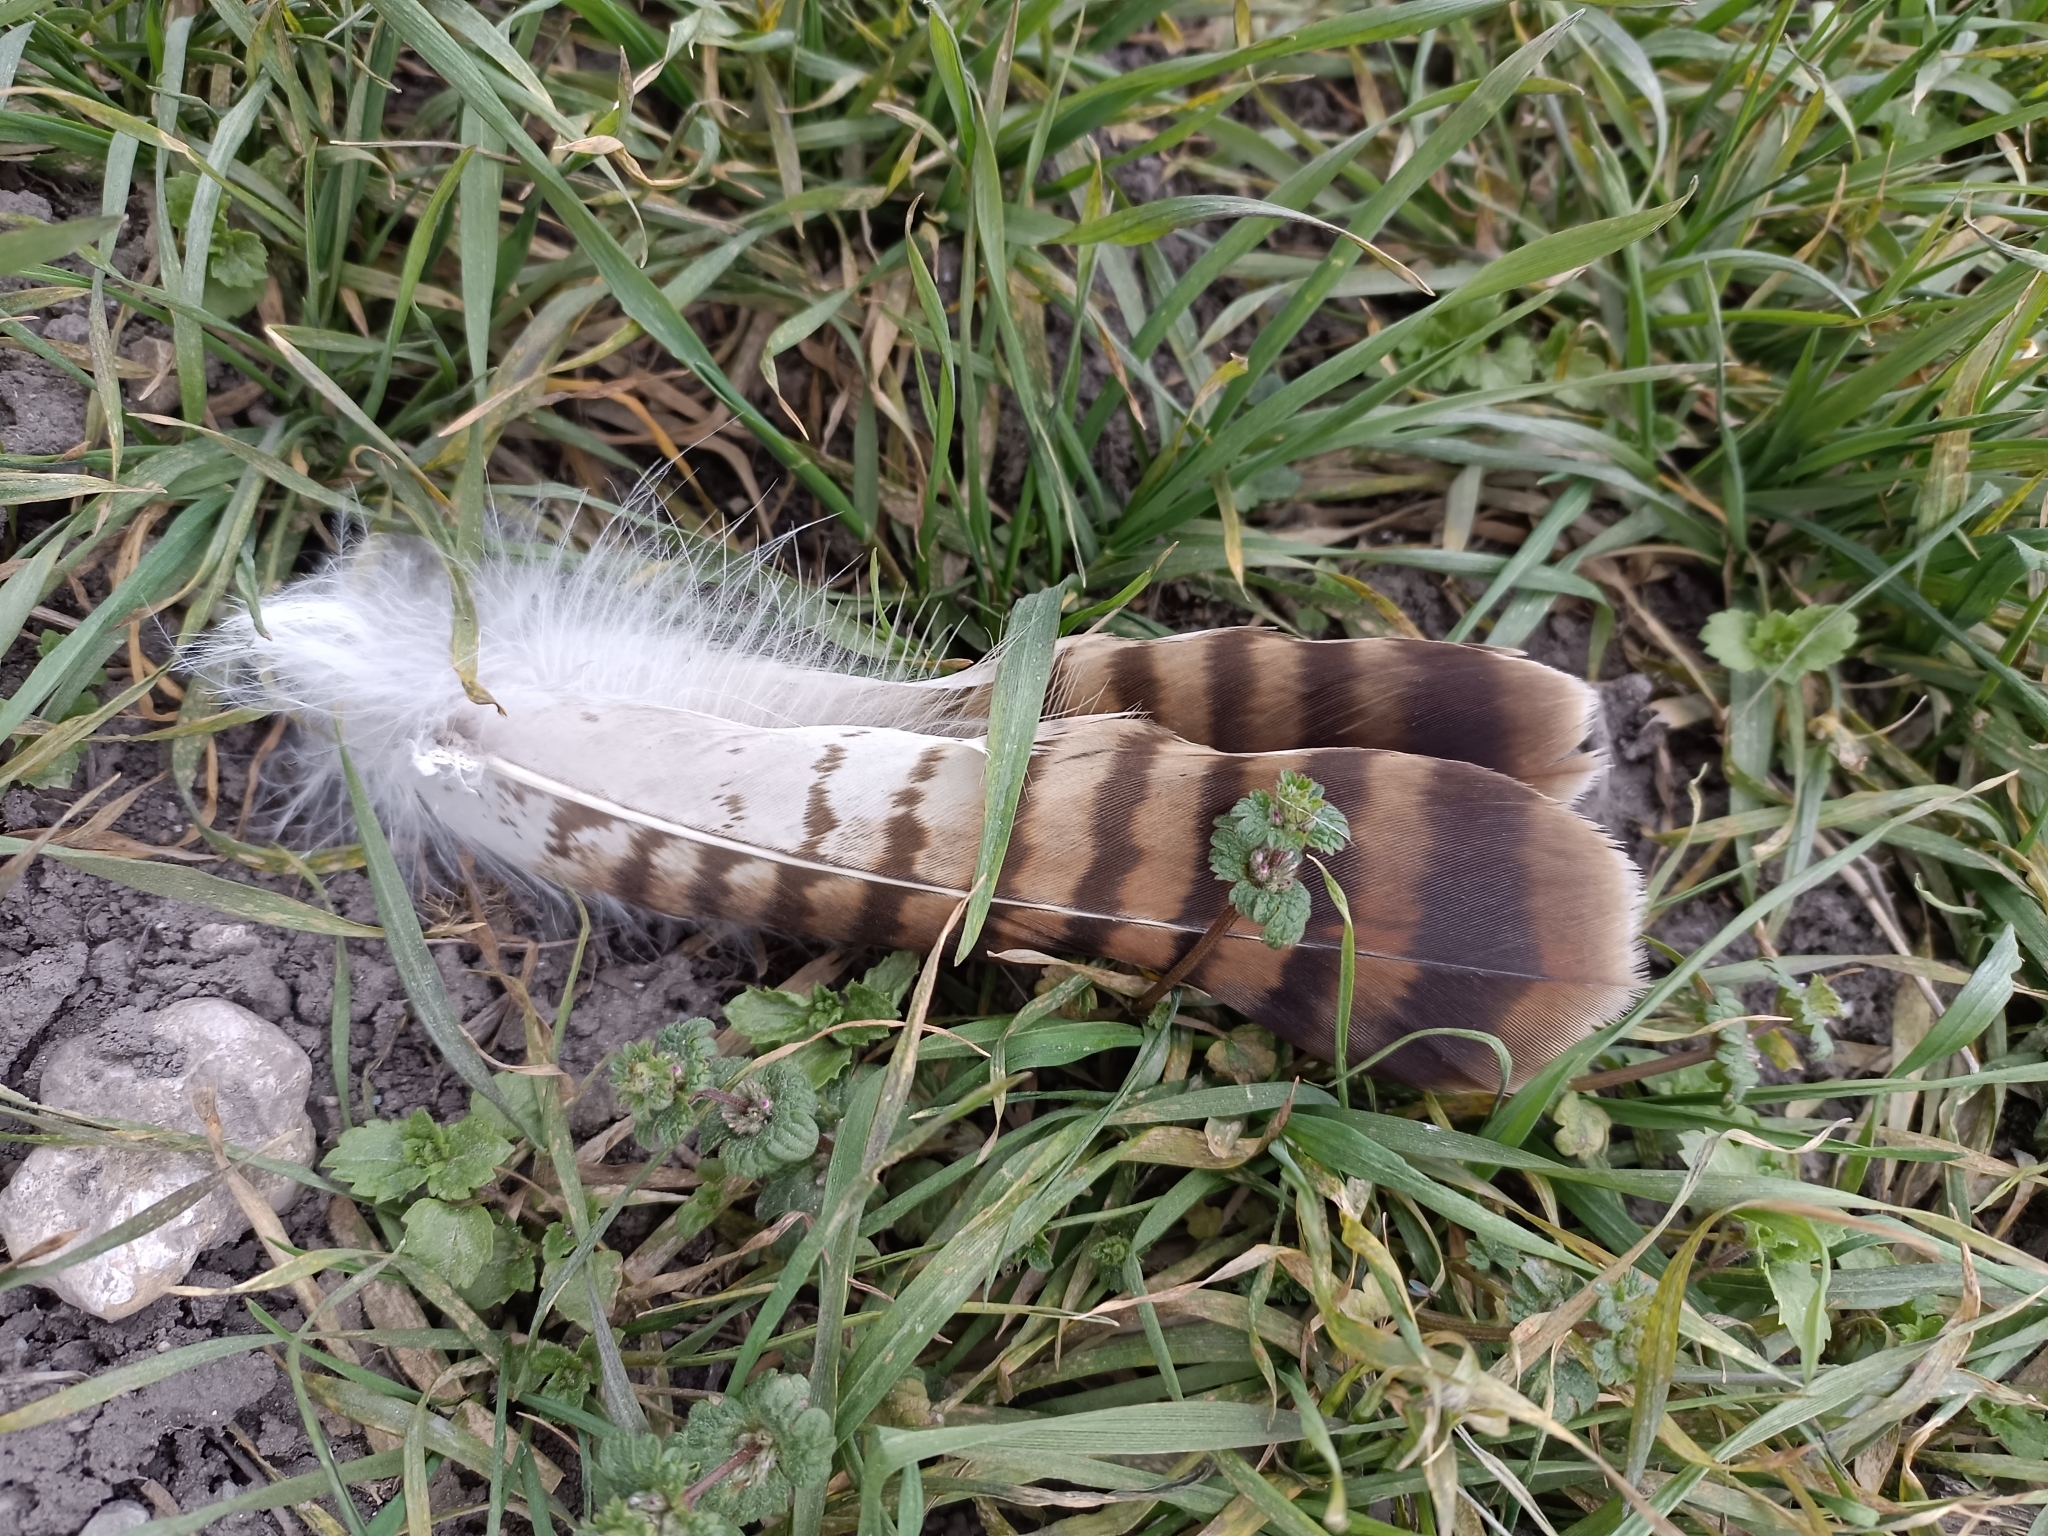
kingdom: Animalia
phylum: Chordata
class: Aves
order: Accipitriformes
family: Accipitridae
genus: Buteo
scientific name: Buteo buteo
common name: Common buzzard
